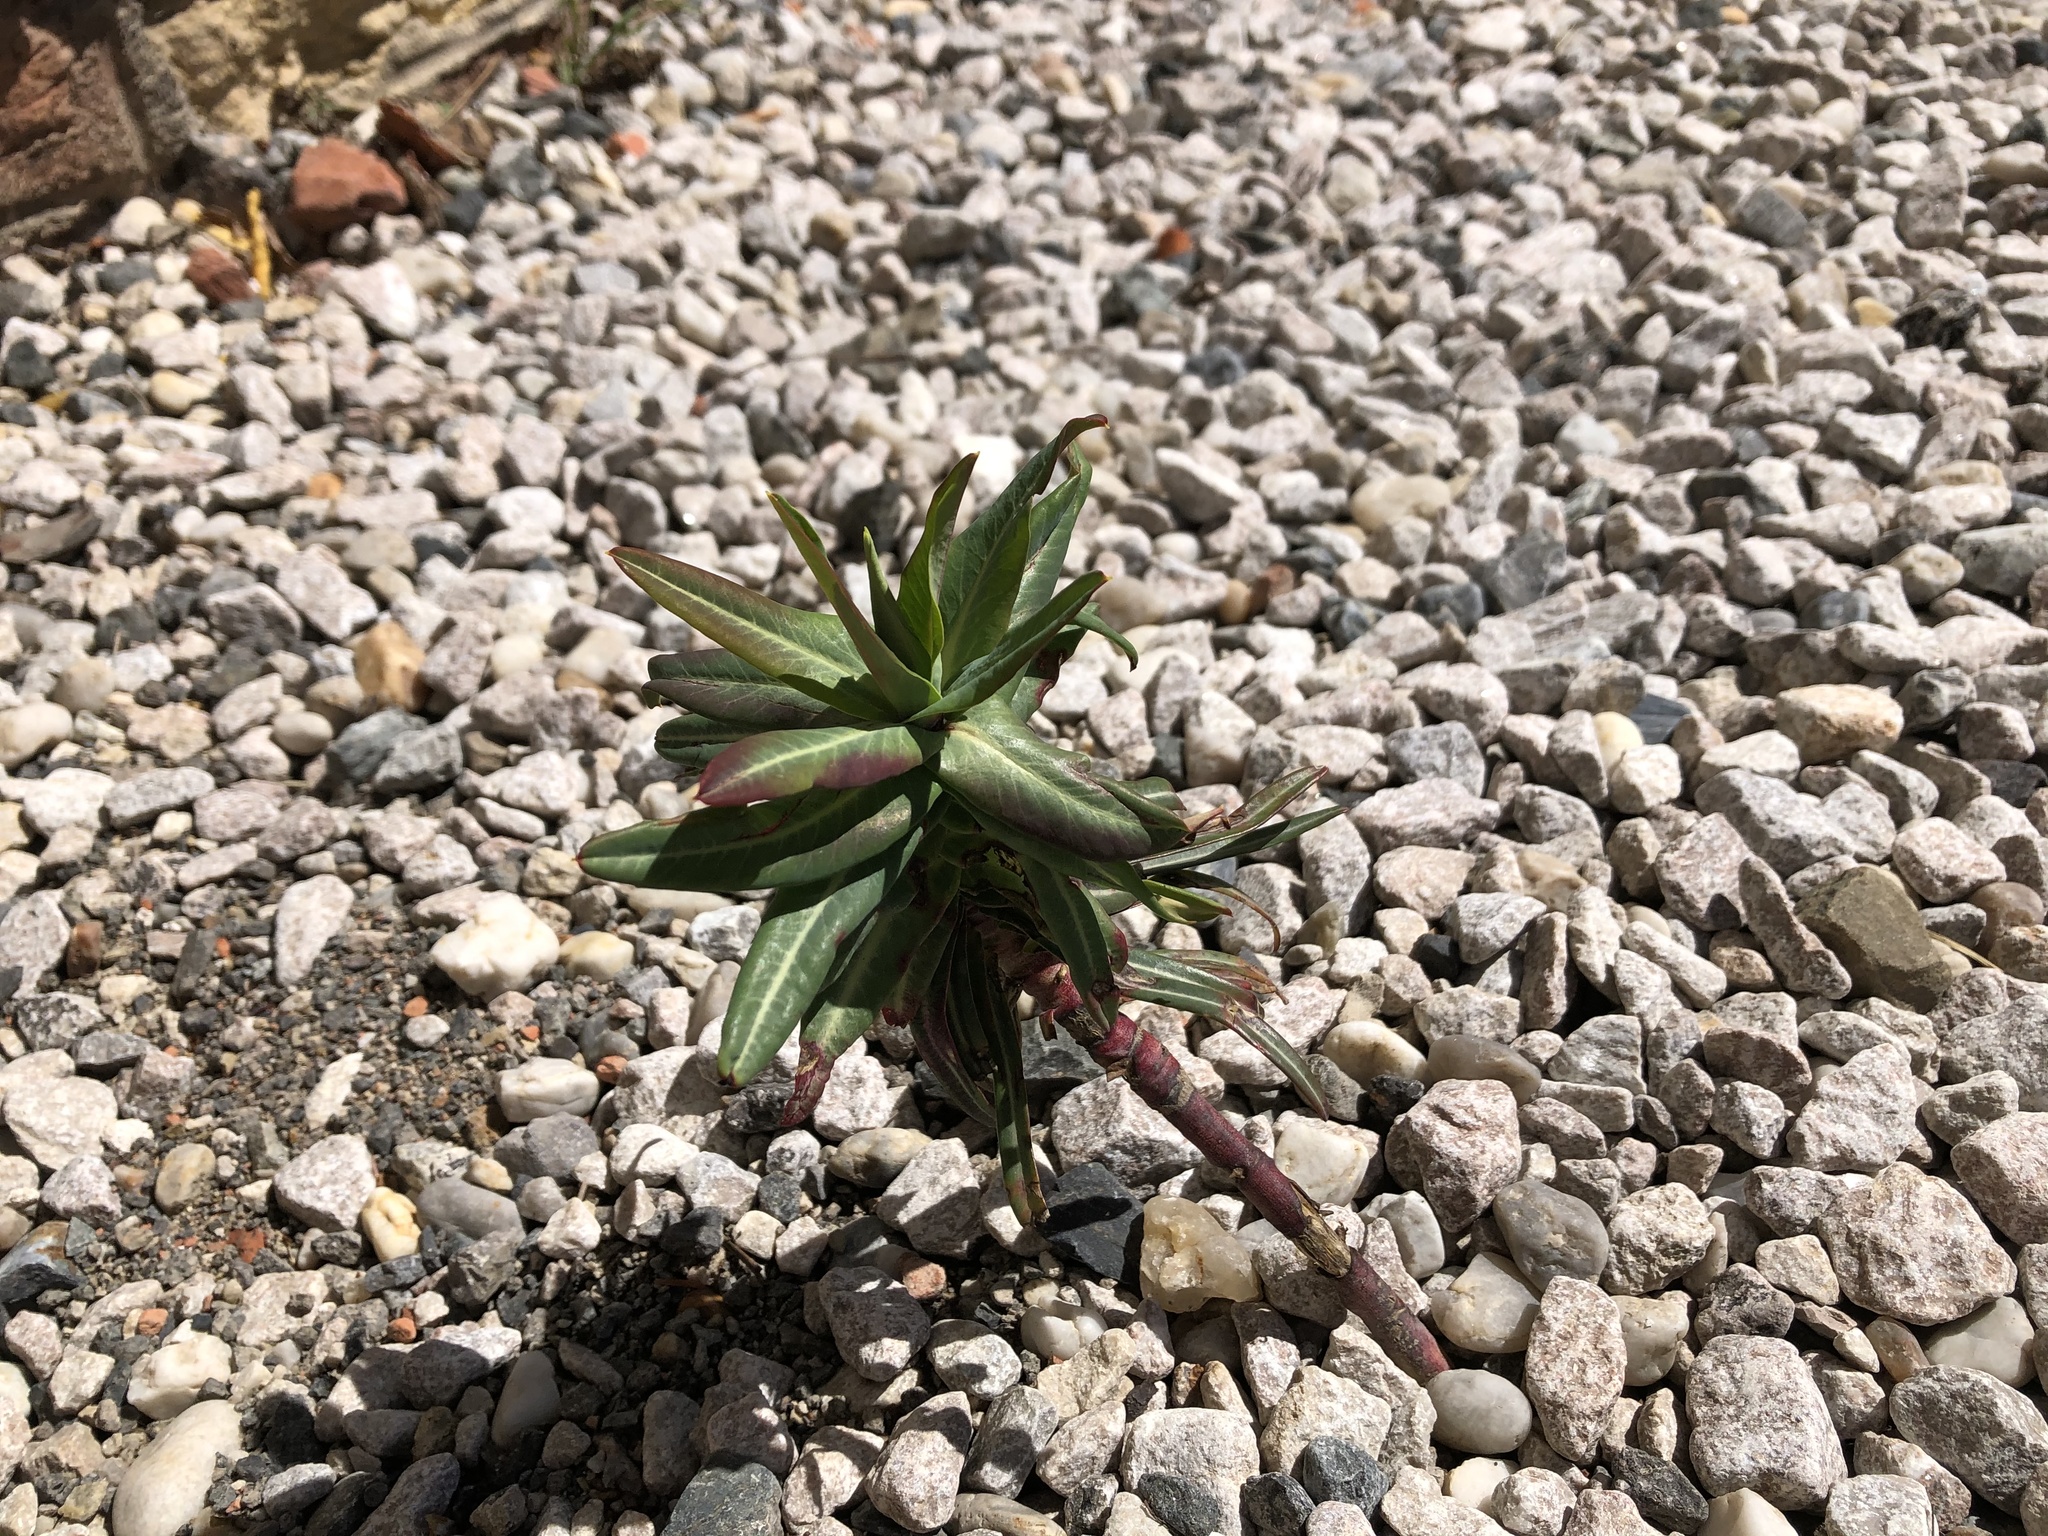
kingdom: Plantae
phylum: Tracheophyta
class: Magnoliopsida
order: Malpighiales
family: Euphorbiaceae
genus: Euphorbia
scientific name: Euphorbia lathyris
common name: Caper spurge
